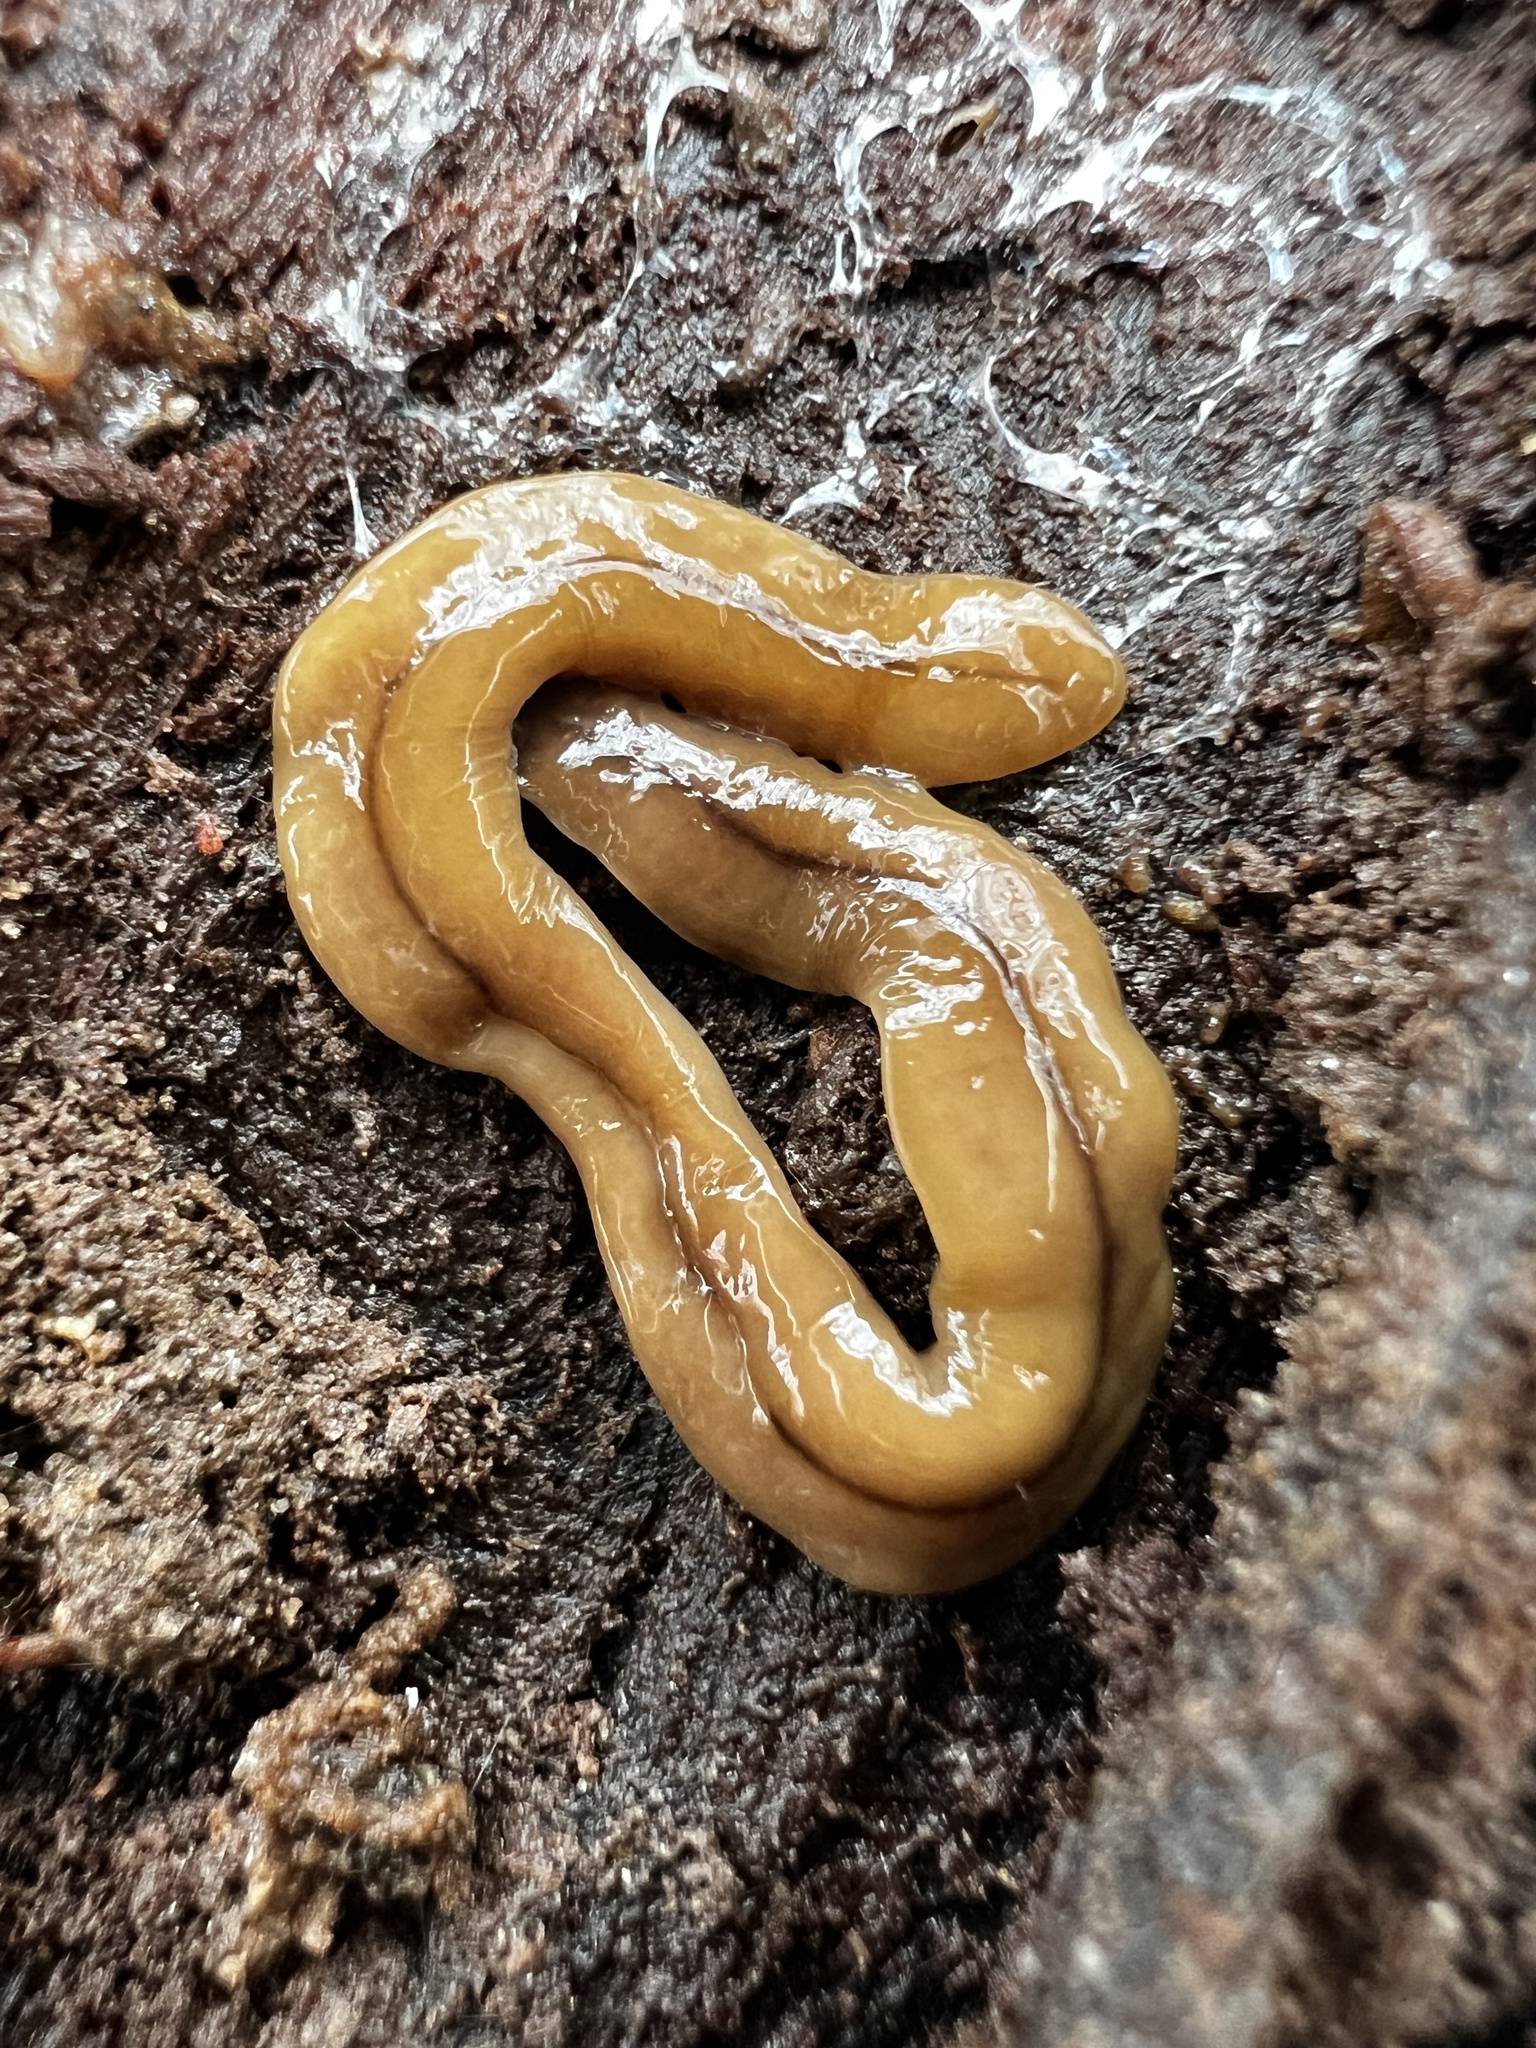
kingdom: Animalia
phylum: Platyhelminthes
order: Tricladida
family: Geoplanidae
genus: Bipalium
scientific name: Bipalium adventitium
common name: Land planarian
